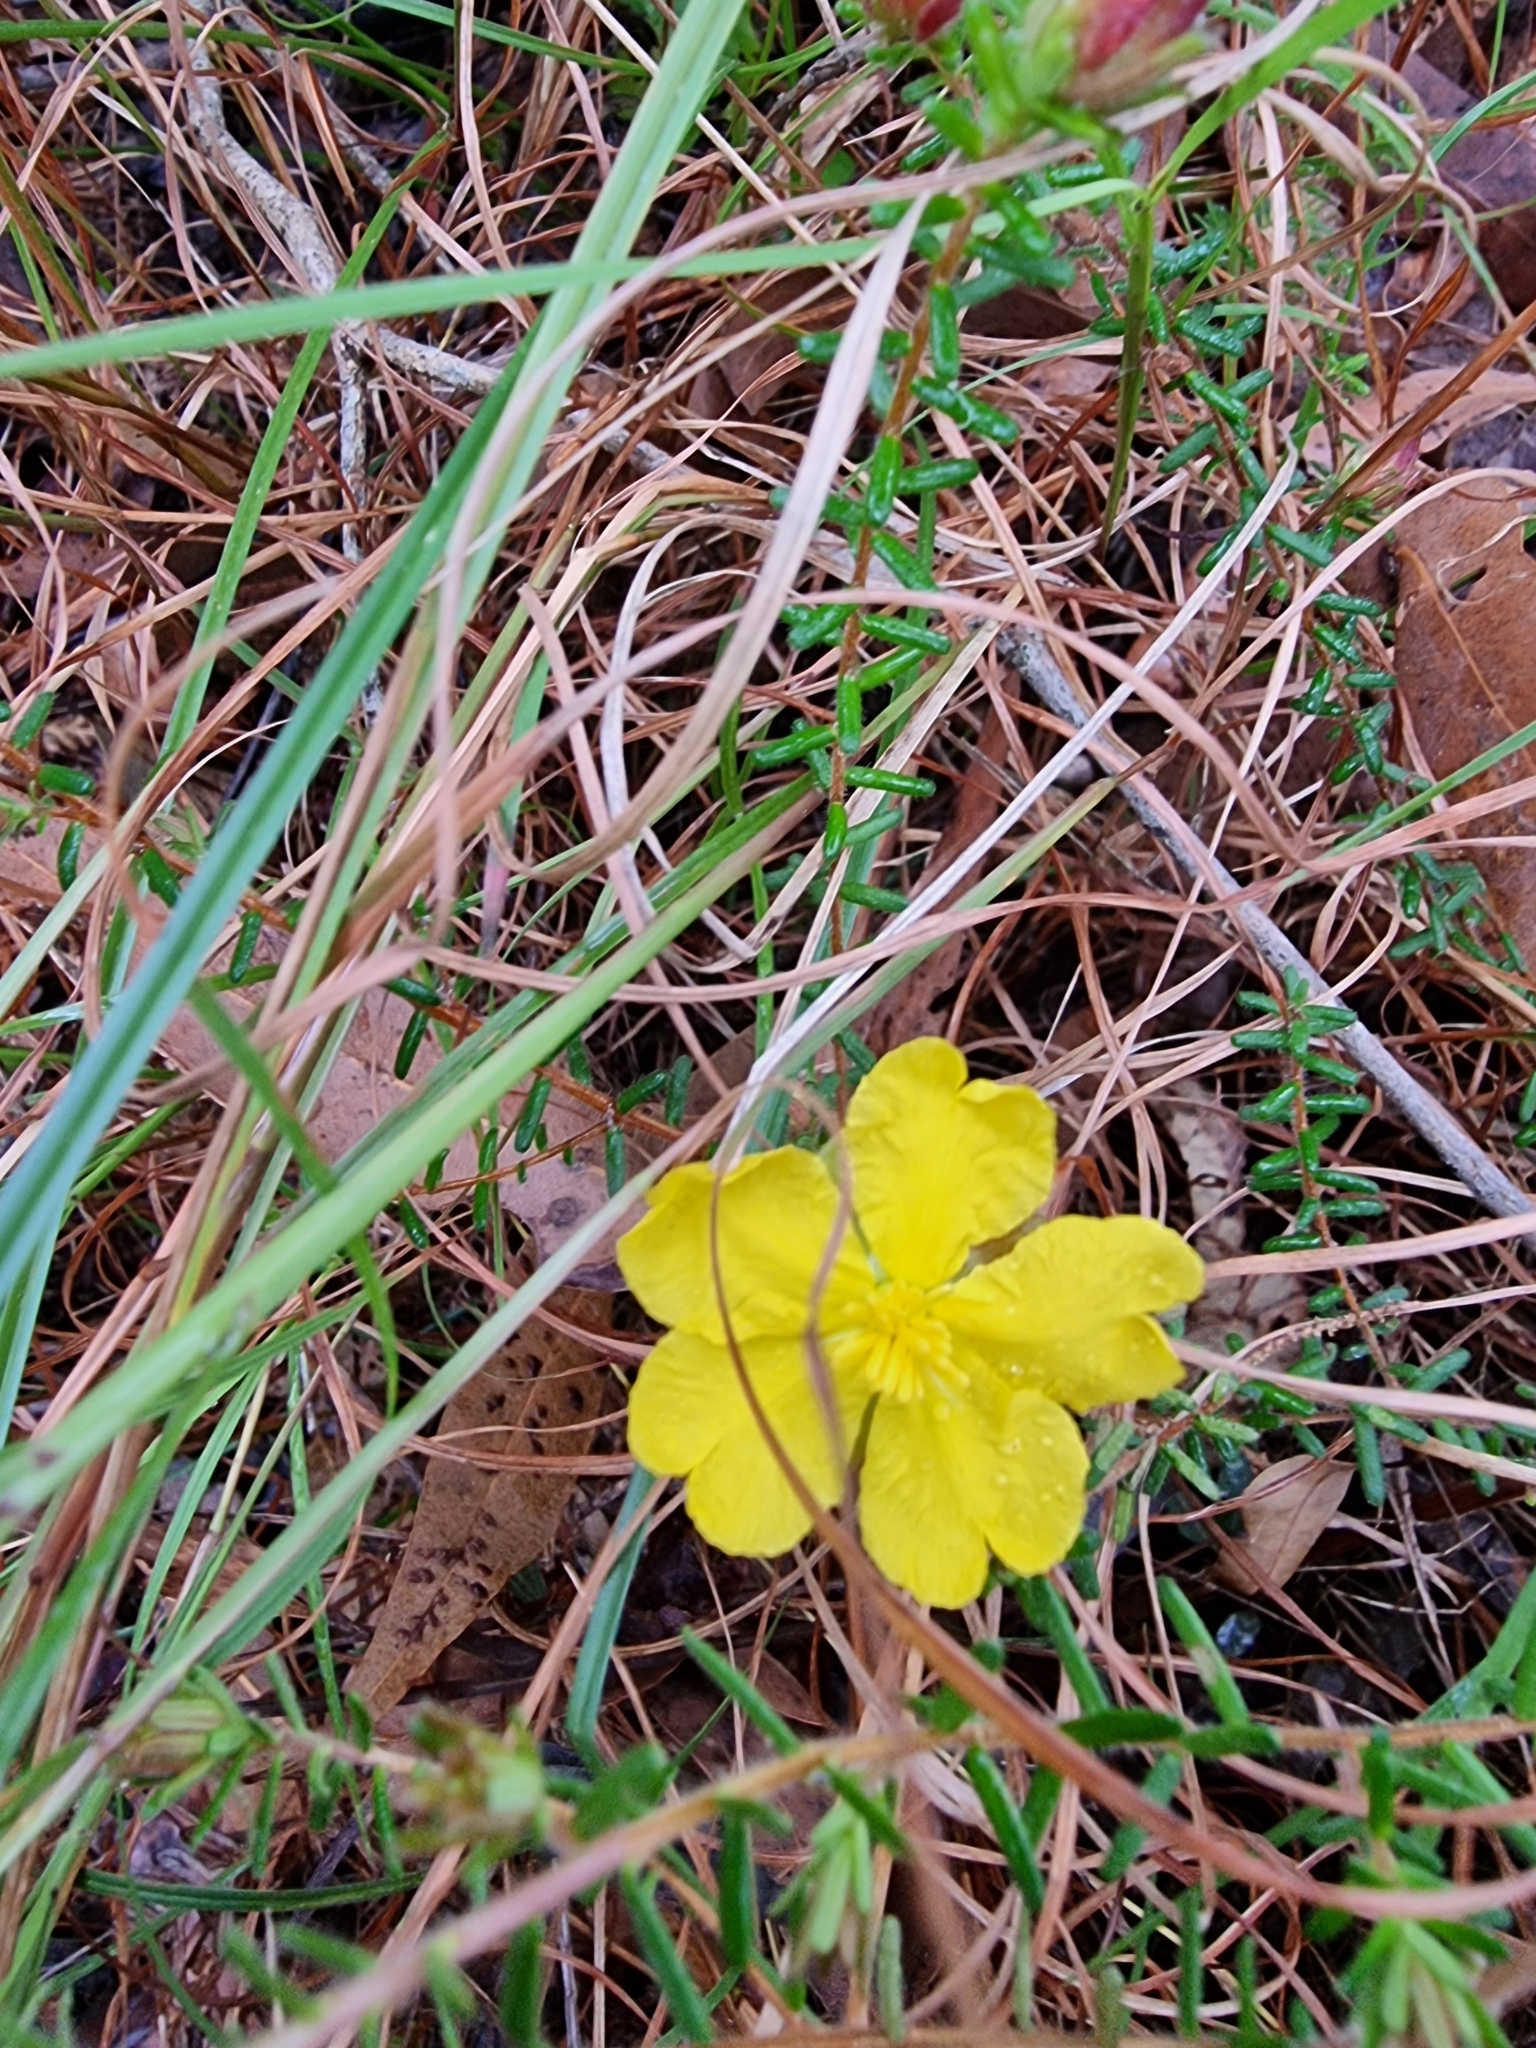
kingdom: Plantae
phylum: Tracheophyta
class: Magnoliopsida
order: Dilleniales
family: Dilleniaceae
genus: Hibbertia
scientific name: Hibbertia vestita
